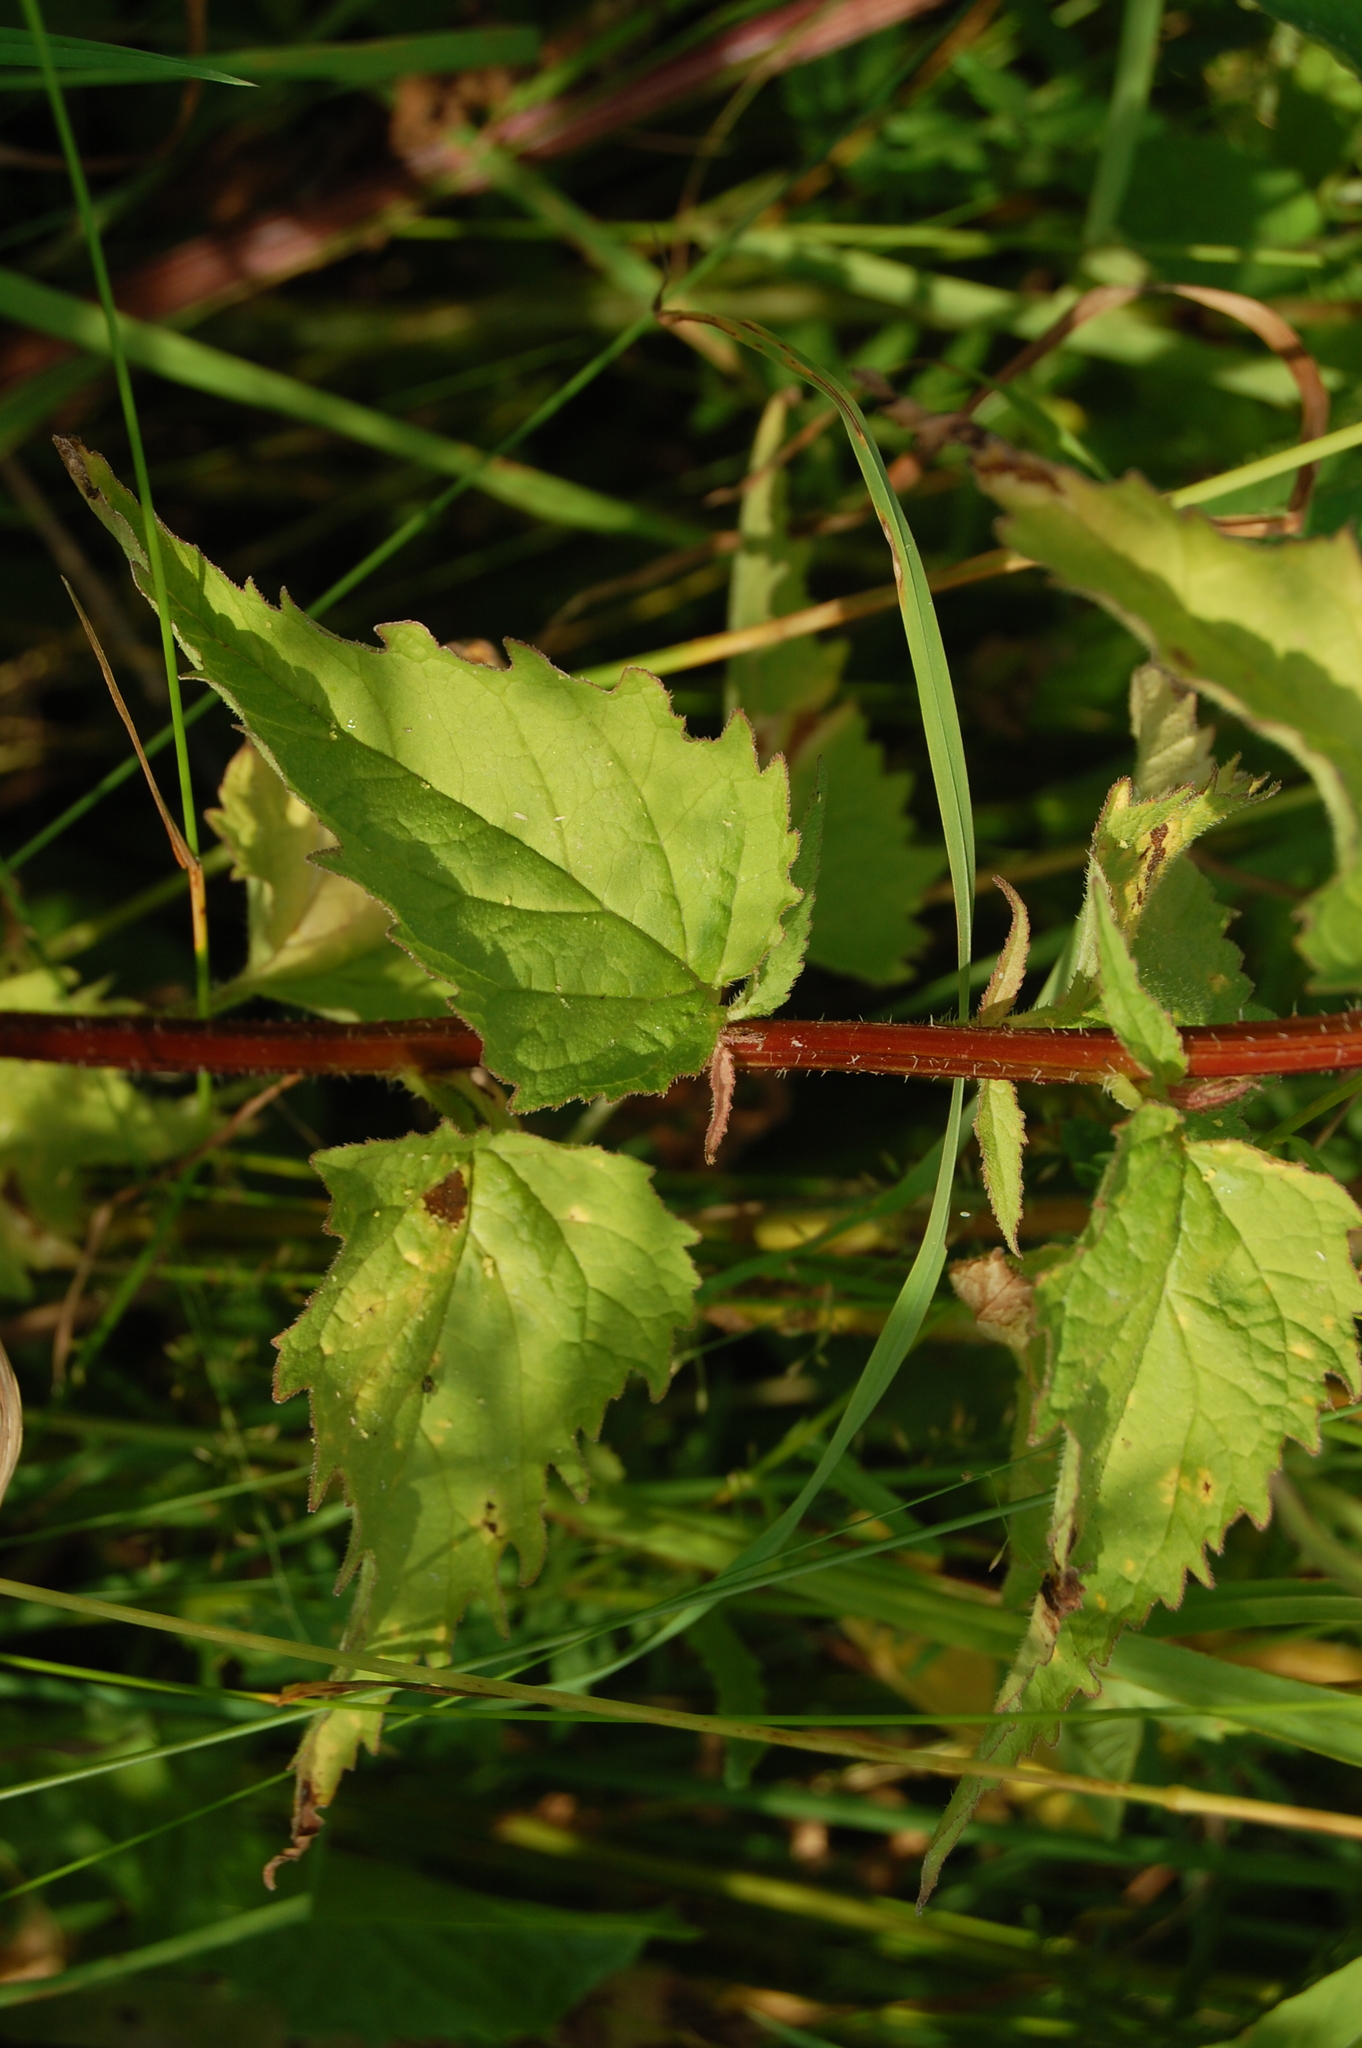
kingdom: Plantae
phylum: Tracheophyta
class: Magnoliopsida
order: Asterales
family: Campanulaceae
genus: Campanula
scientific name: Campanula trachelium
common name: Nettle-leaved bellflower
